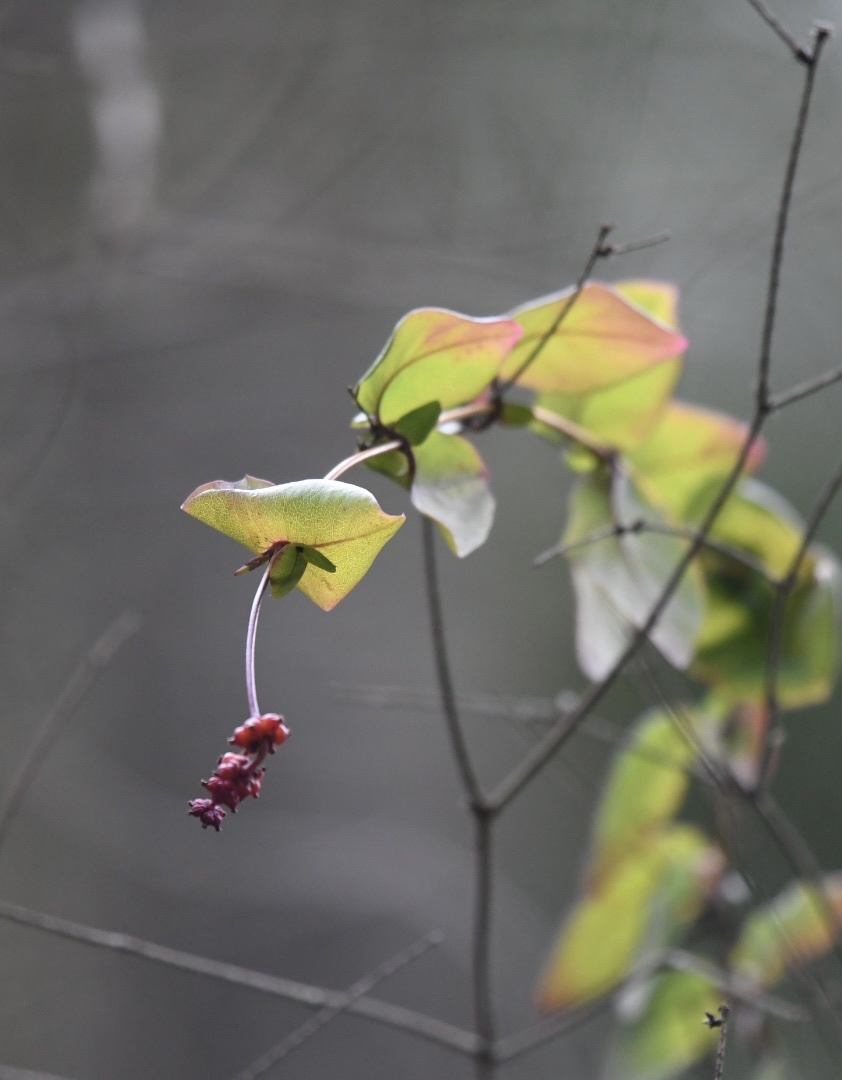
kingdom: Plantae
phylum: Tracheophyta
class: Magnoliopsida
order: Dipsacales
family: Caprifoliaceae
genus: Lonicera
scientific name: Lonicera hispidula
